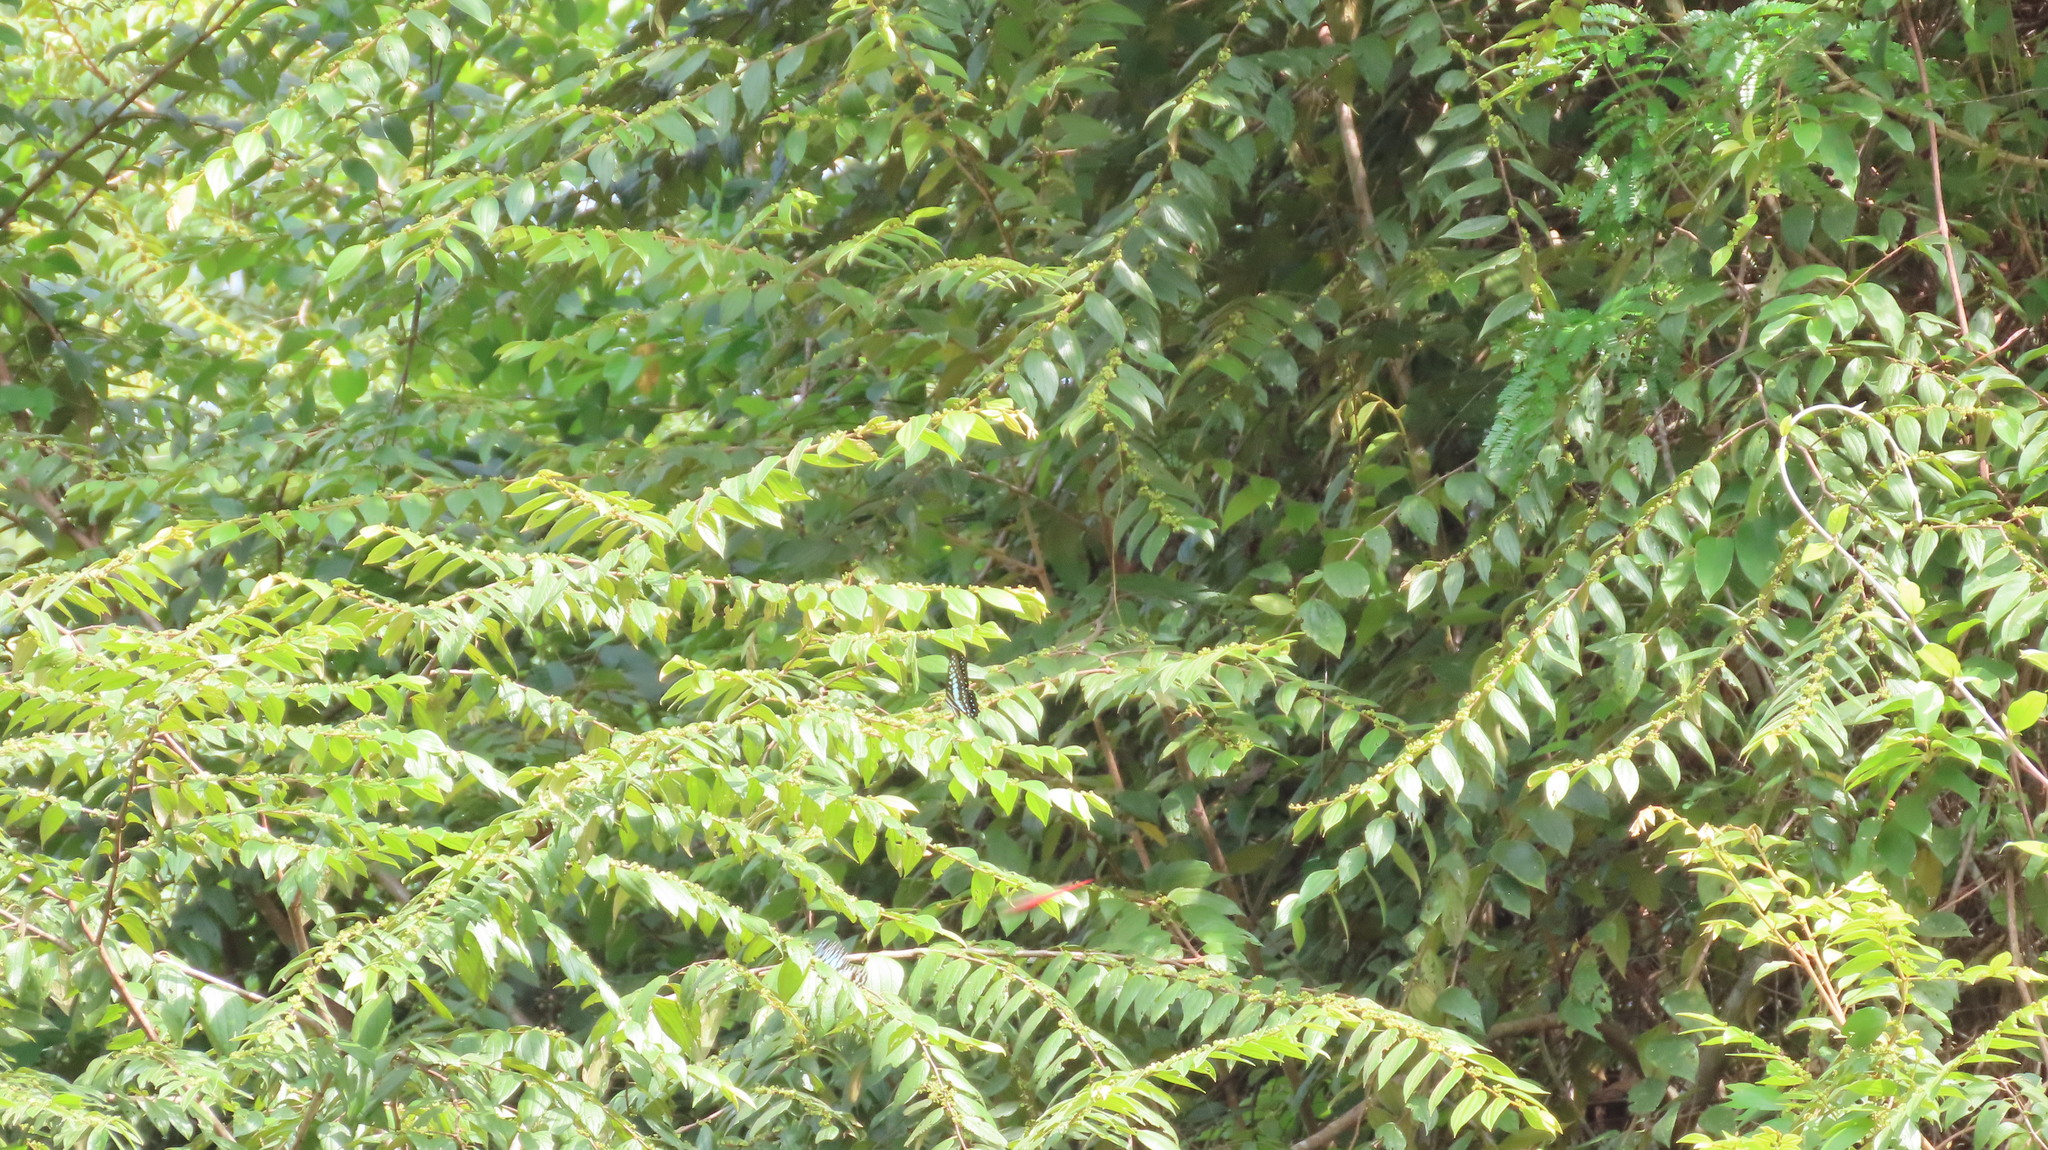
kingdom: Animalia
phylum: Arthropoda
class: Insecta
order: Lepidoptera
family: Papilionidae
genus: Graphium
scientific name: Graphium doson
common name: Common jay
